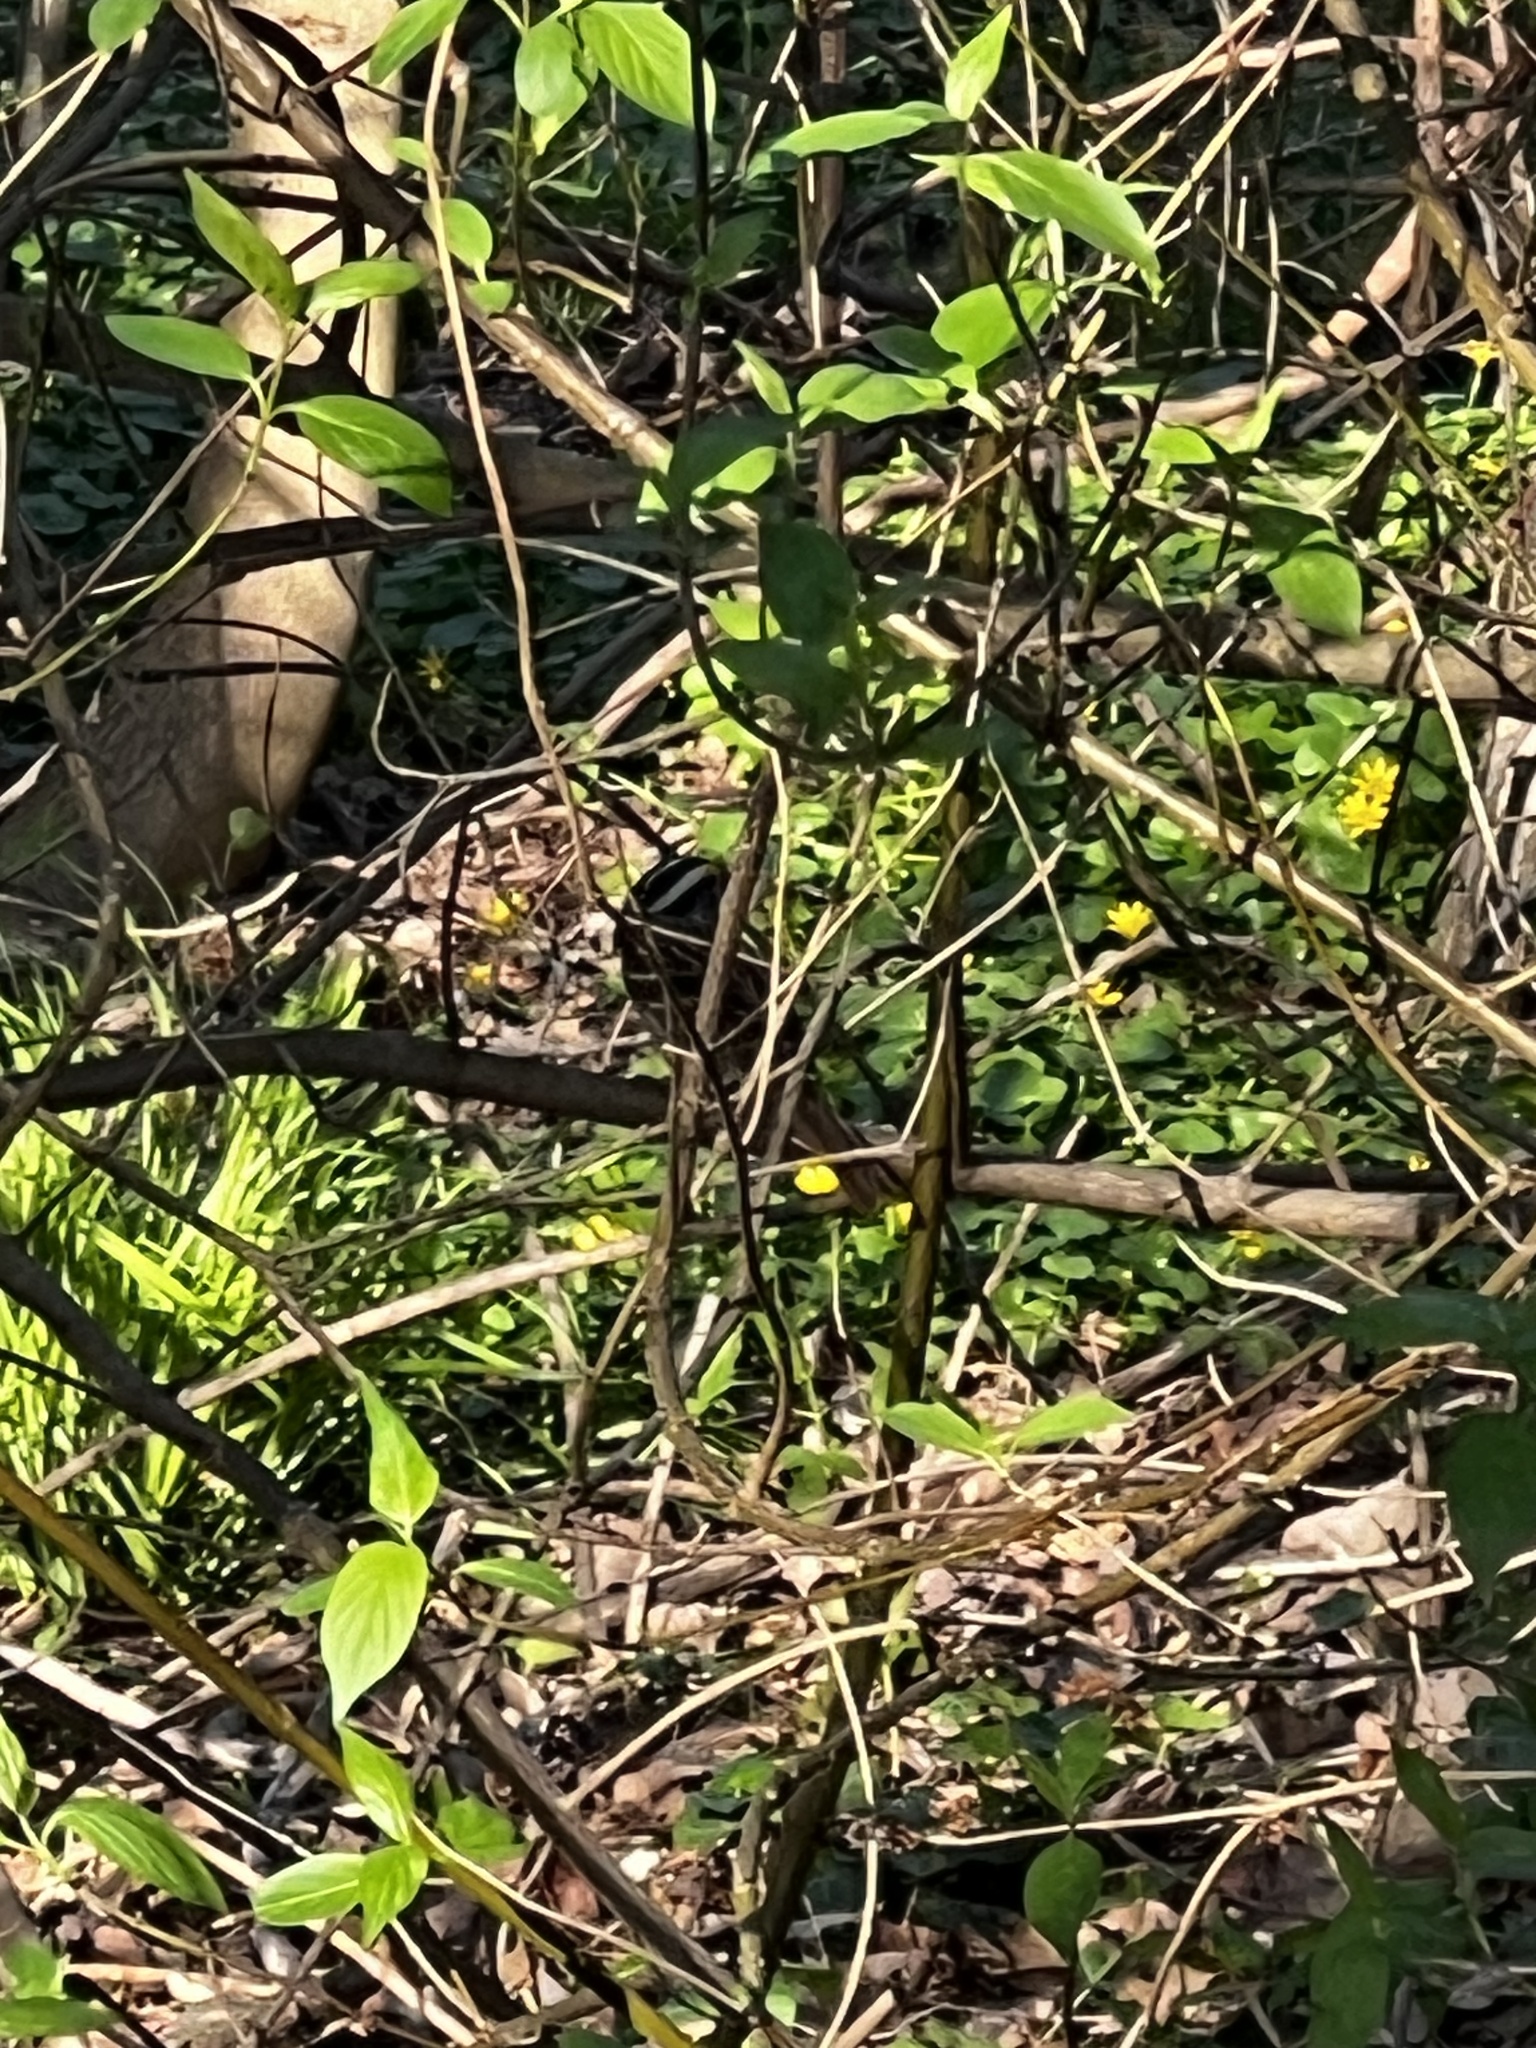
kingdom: Animalia
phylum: Chordata
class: Aves
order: Passeriformes
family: Passerellidae
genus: Zonotrichia
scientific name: Zonotrichia albicollis
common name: White-throated sparrow
